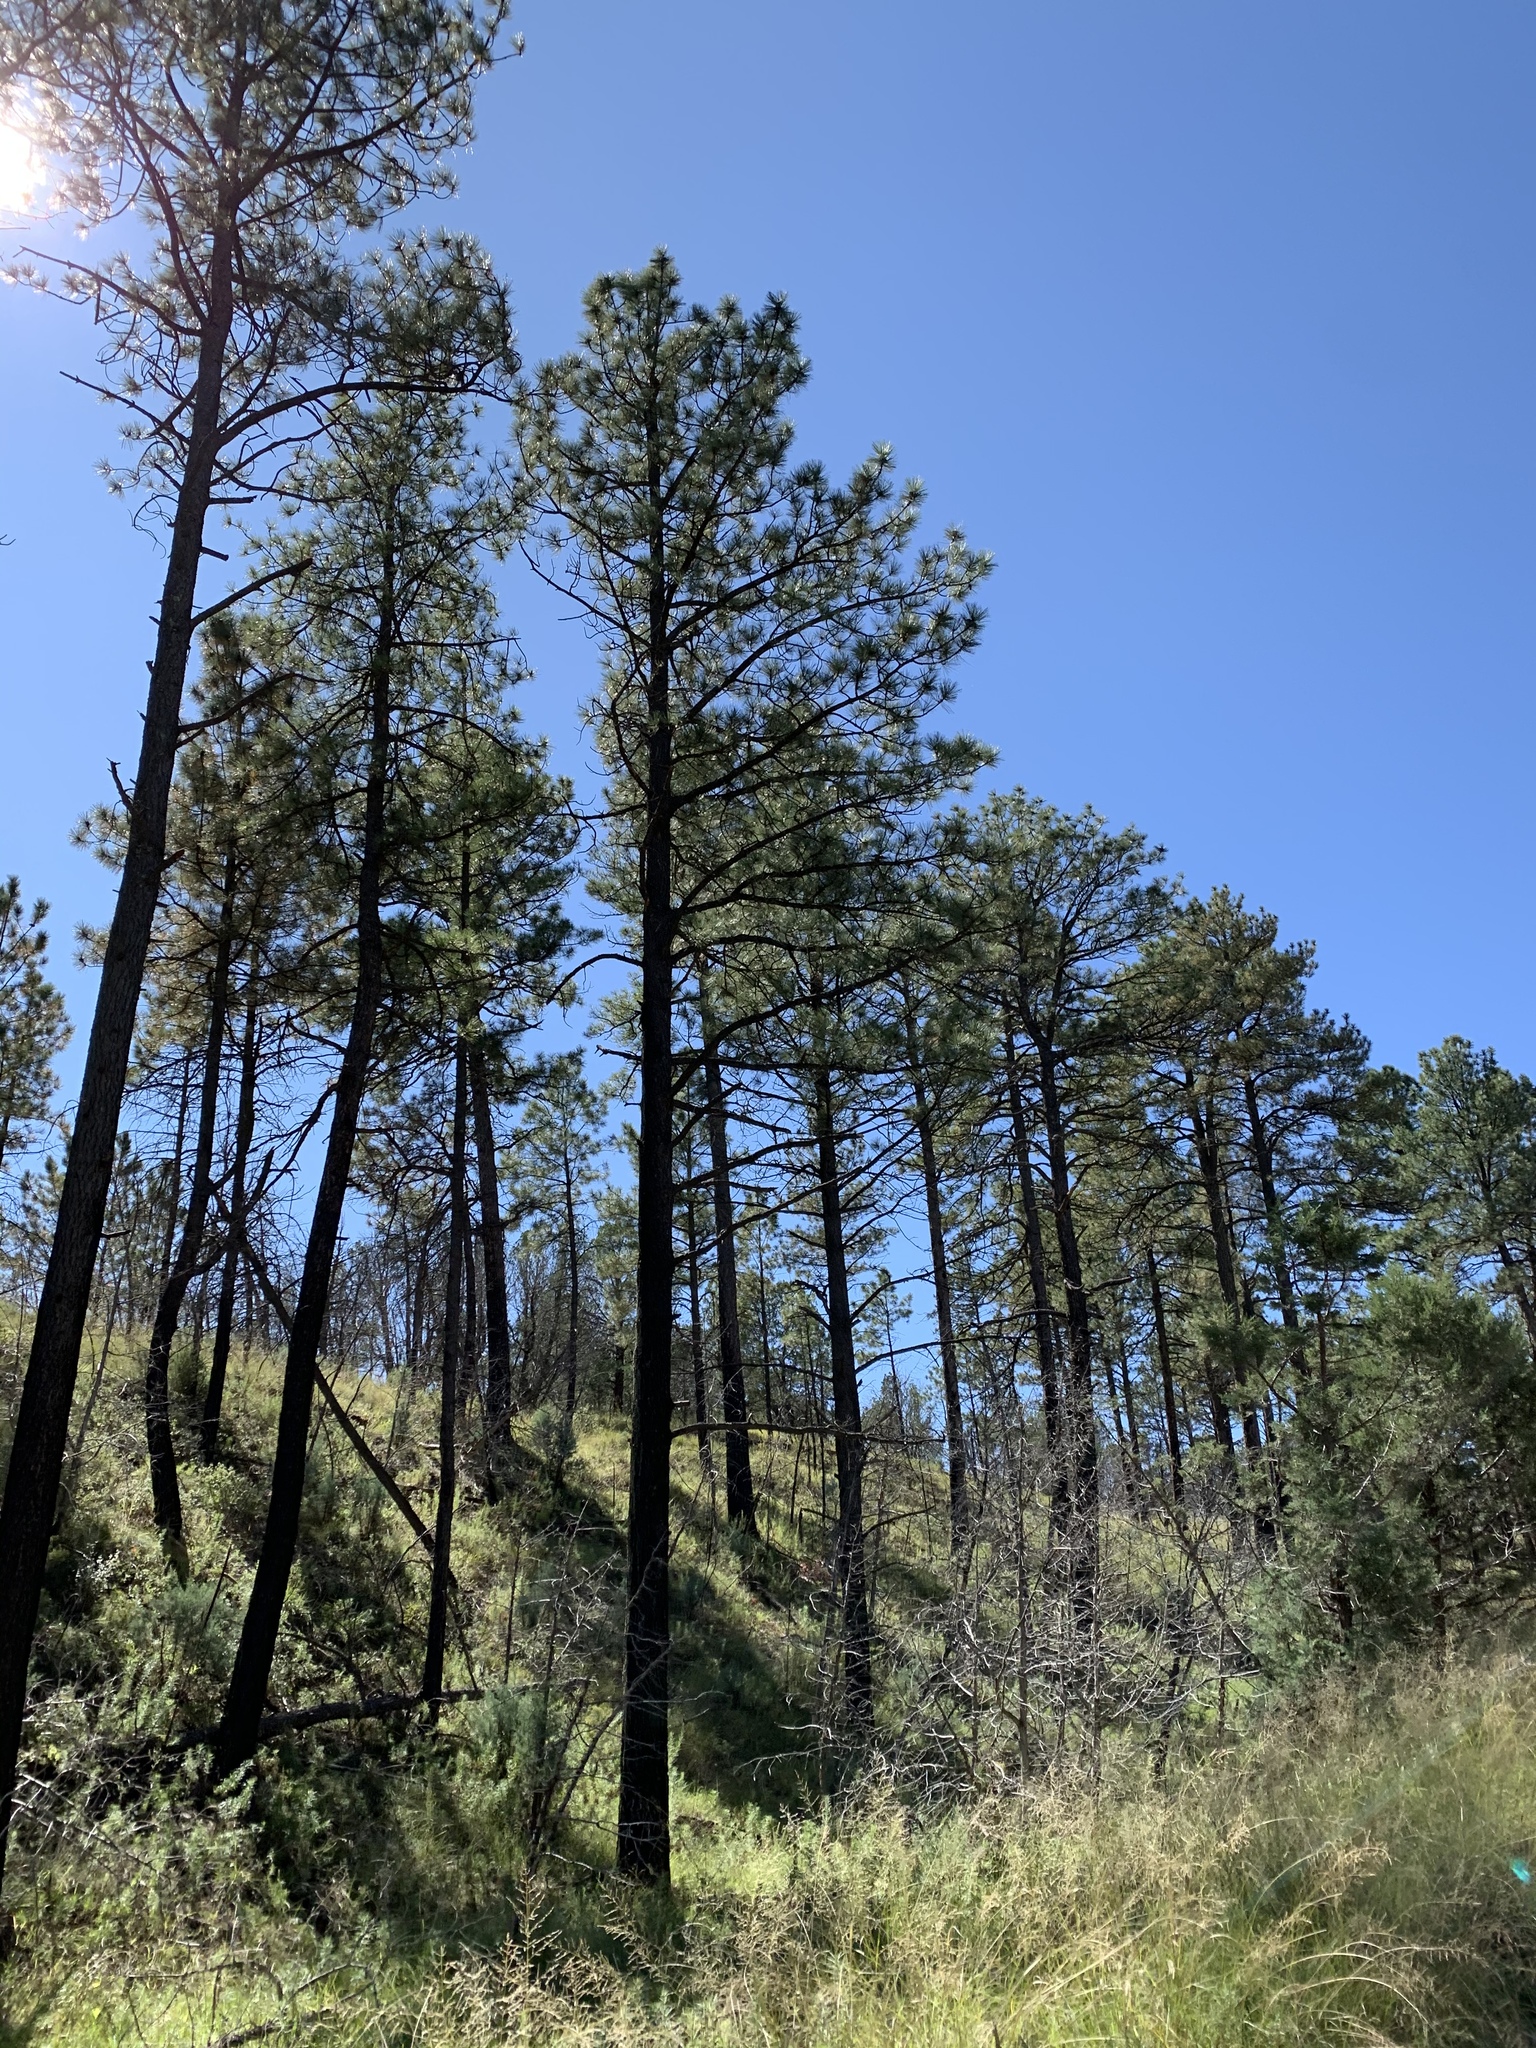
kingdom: Plantae
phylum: Tracheophyta
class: Pinopsida
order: Pinales
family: Pinaceae
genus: Pinus
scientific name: Pinus ponderosa
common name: Western yellow-pine
